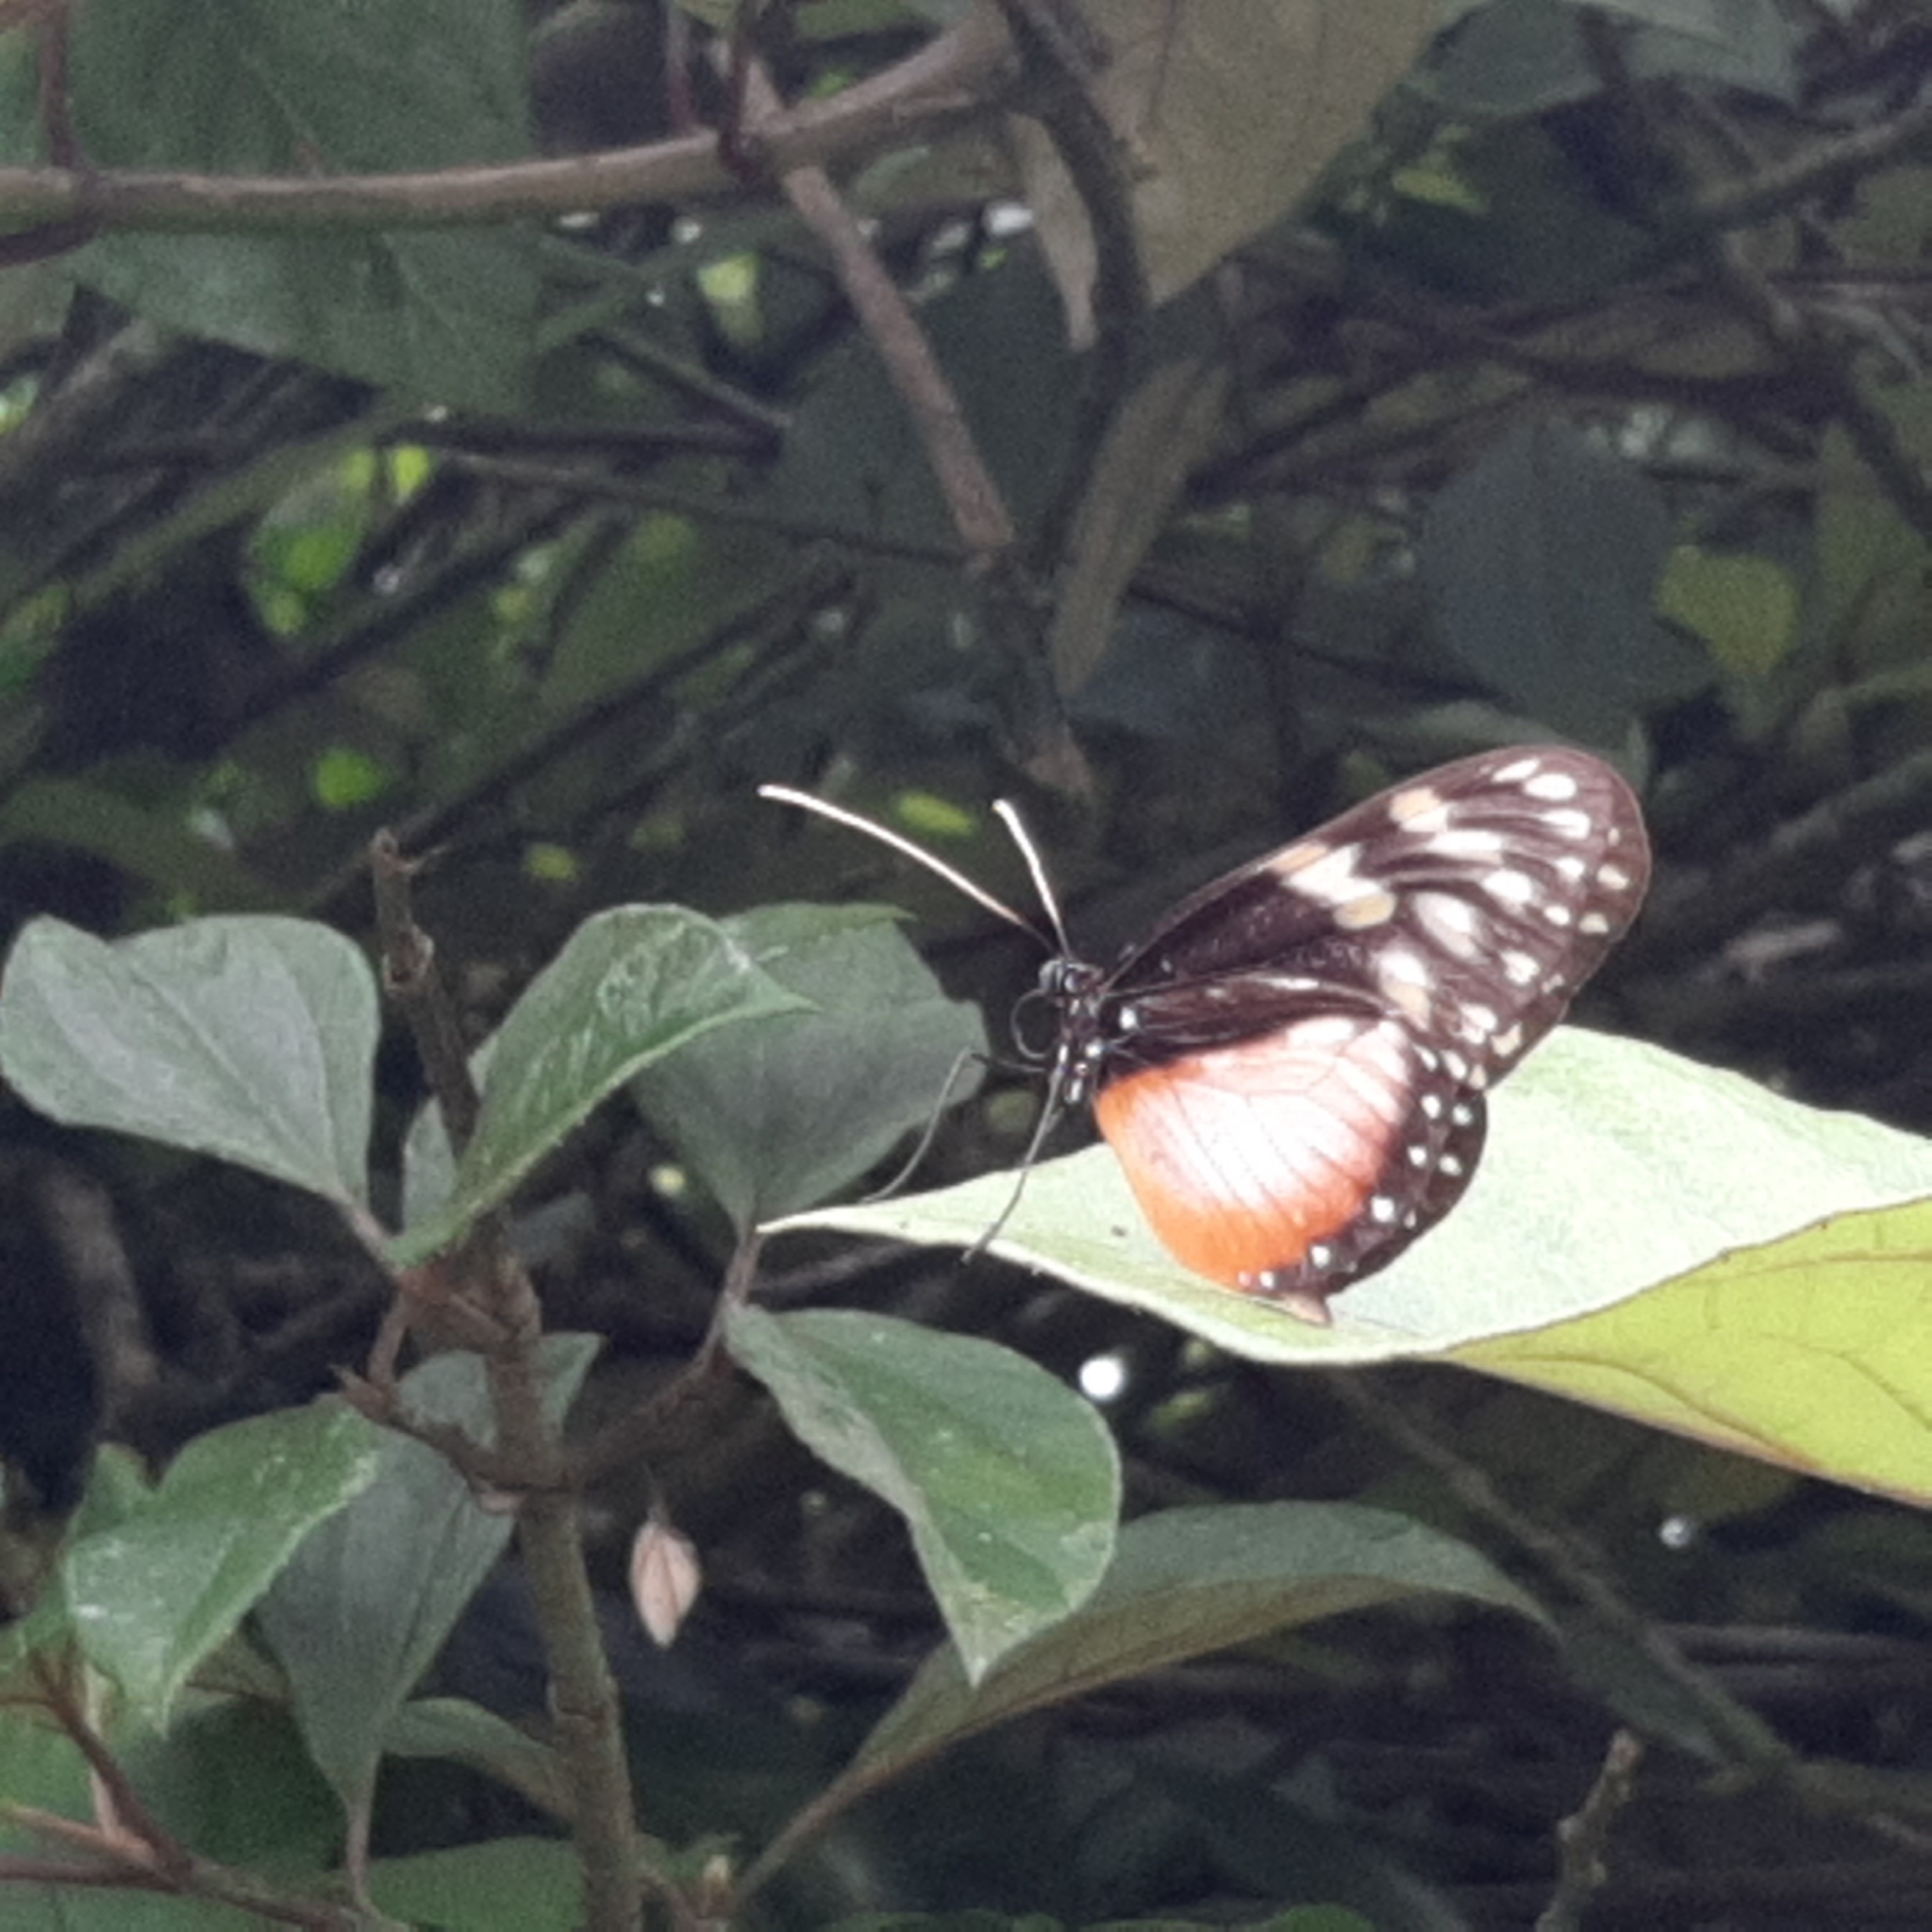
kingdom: Animalia
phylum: Arthropoda
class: Insecta
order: Lepidoptera
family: Nymphalidae
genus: Hyalyris
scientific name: Hyalyris excelsa
